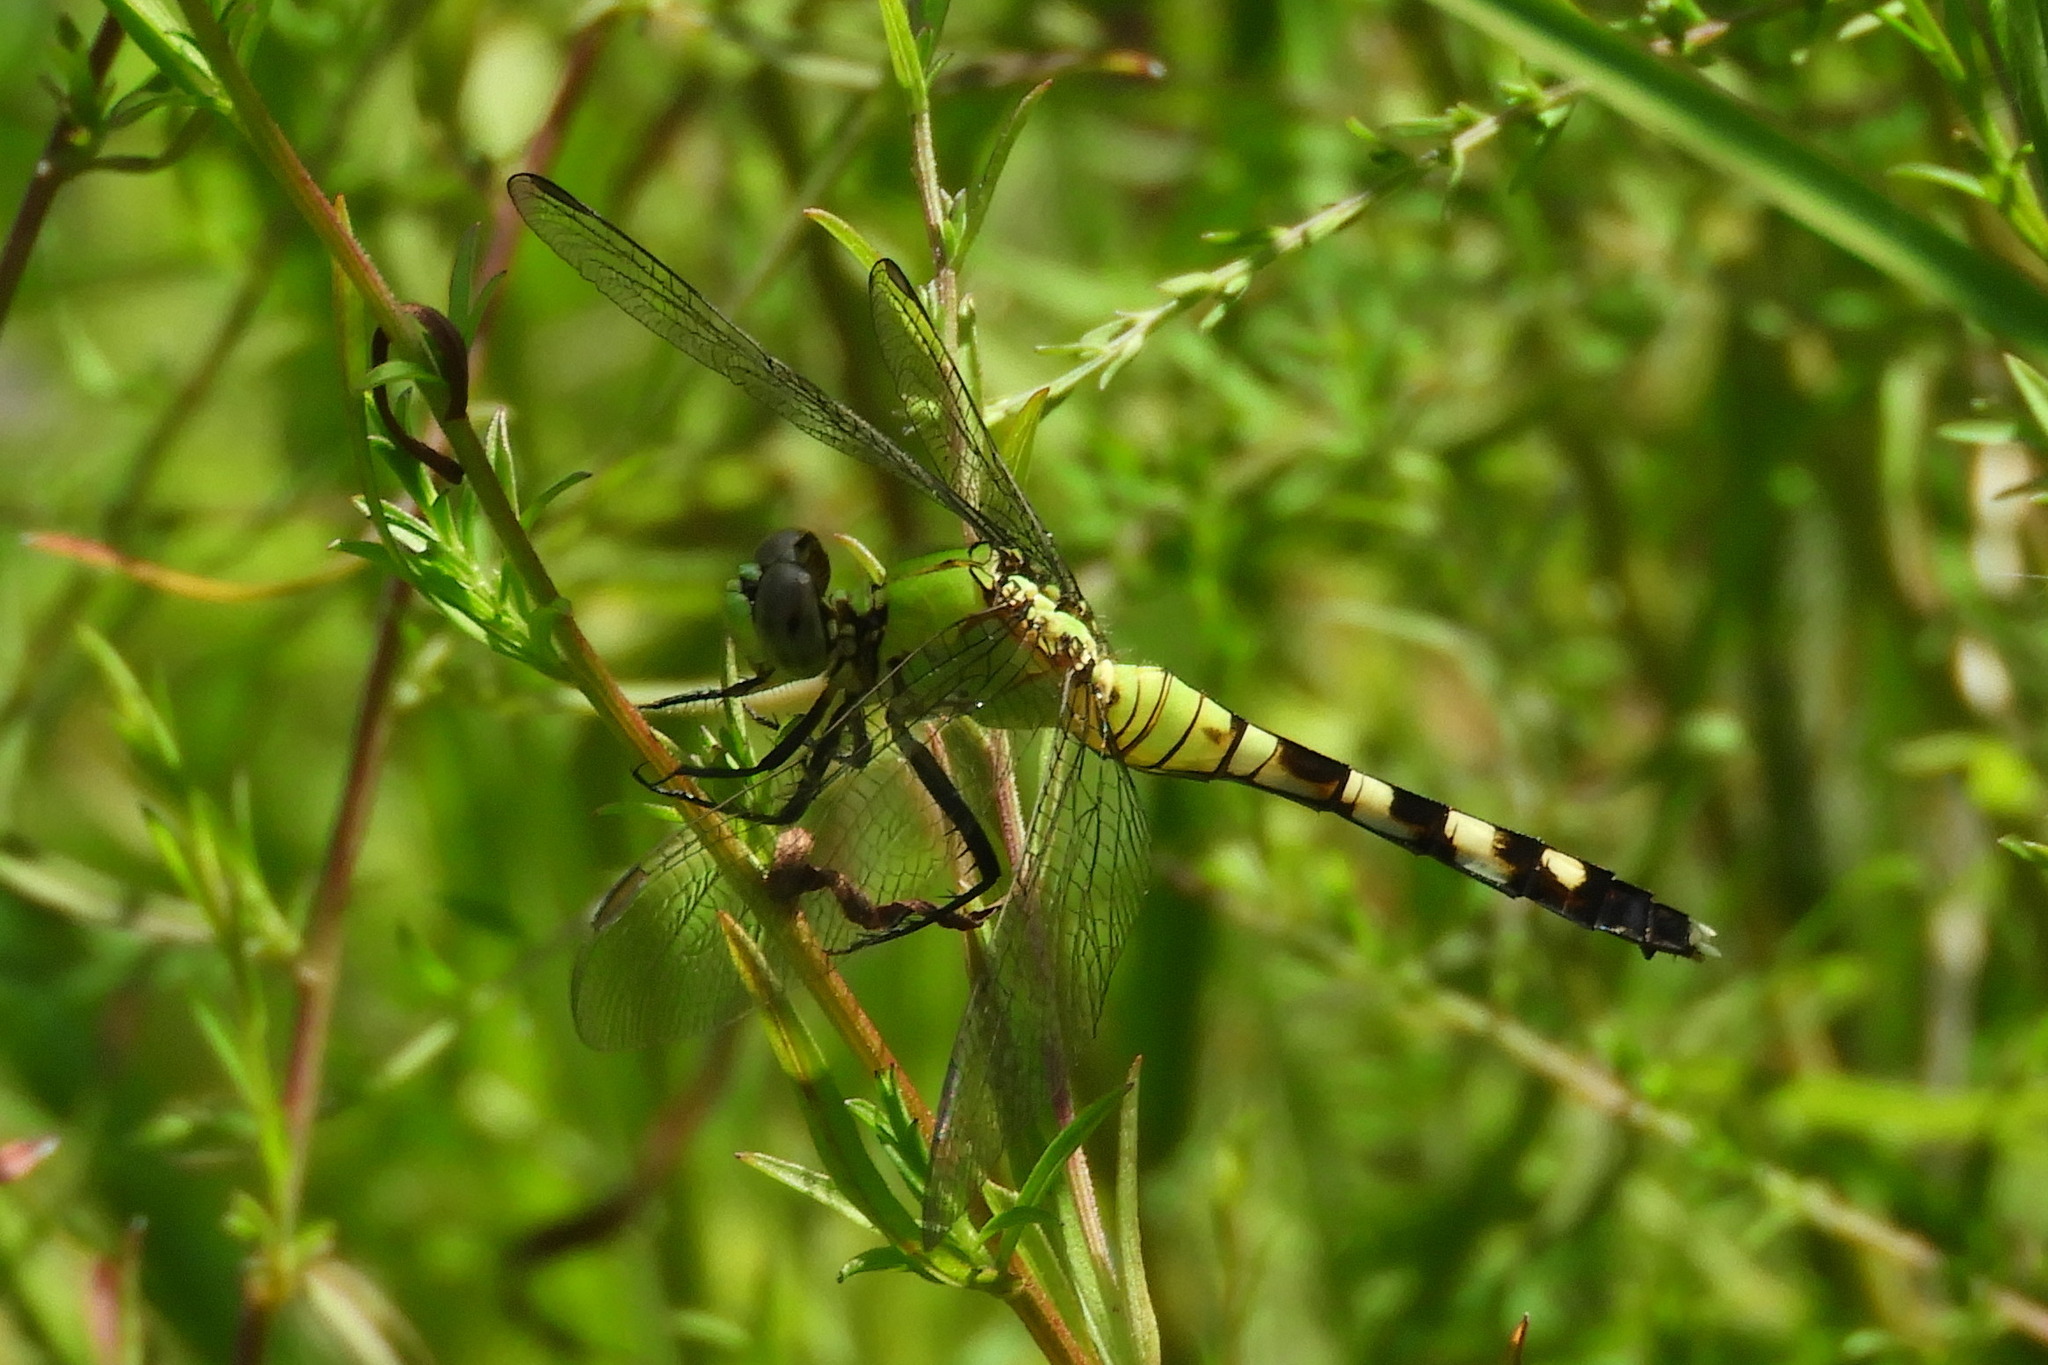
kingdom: Animalia
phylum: Arthropoda
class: Insecta
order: Odonata
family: Libellulidae
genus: Erythemis
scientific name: Erythemis simplicicollis
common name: Eastern pondhawk
